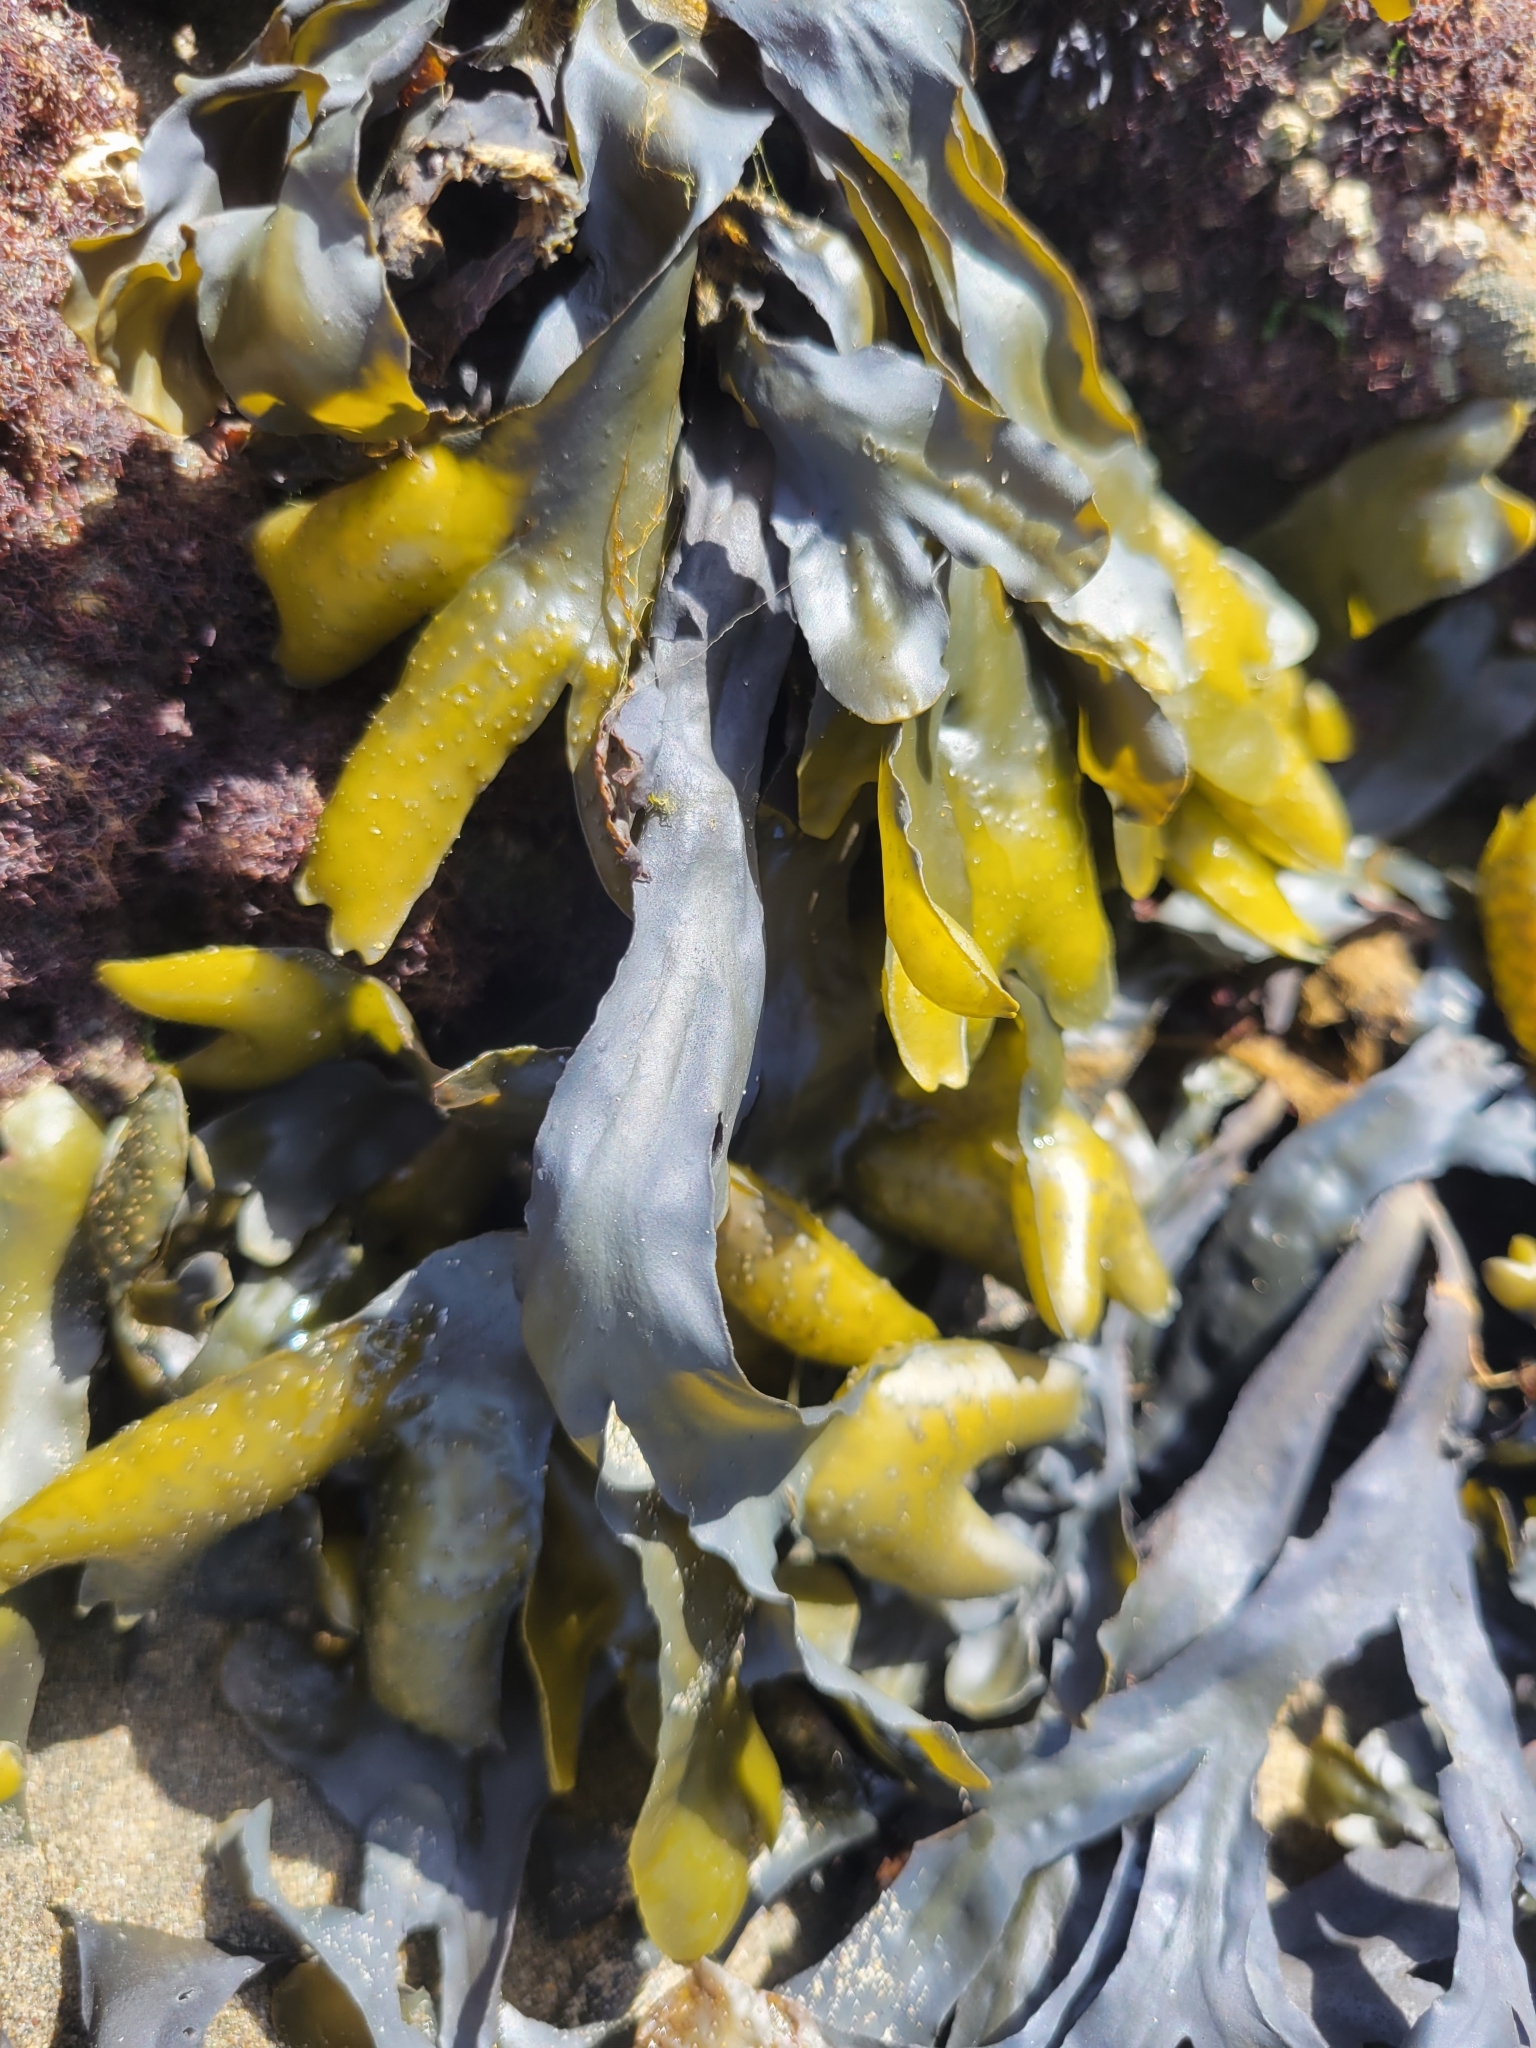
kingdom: Chromista
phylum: Ochrophyta
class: Phaeophyceae
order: Fucales
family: Fucaceae
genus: Fucus
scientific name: Fucus distichus
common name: Rockweed
